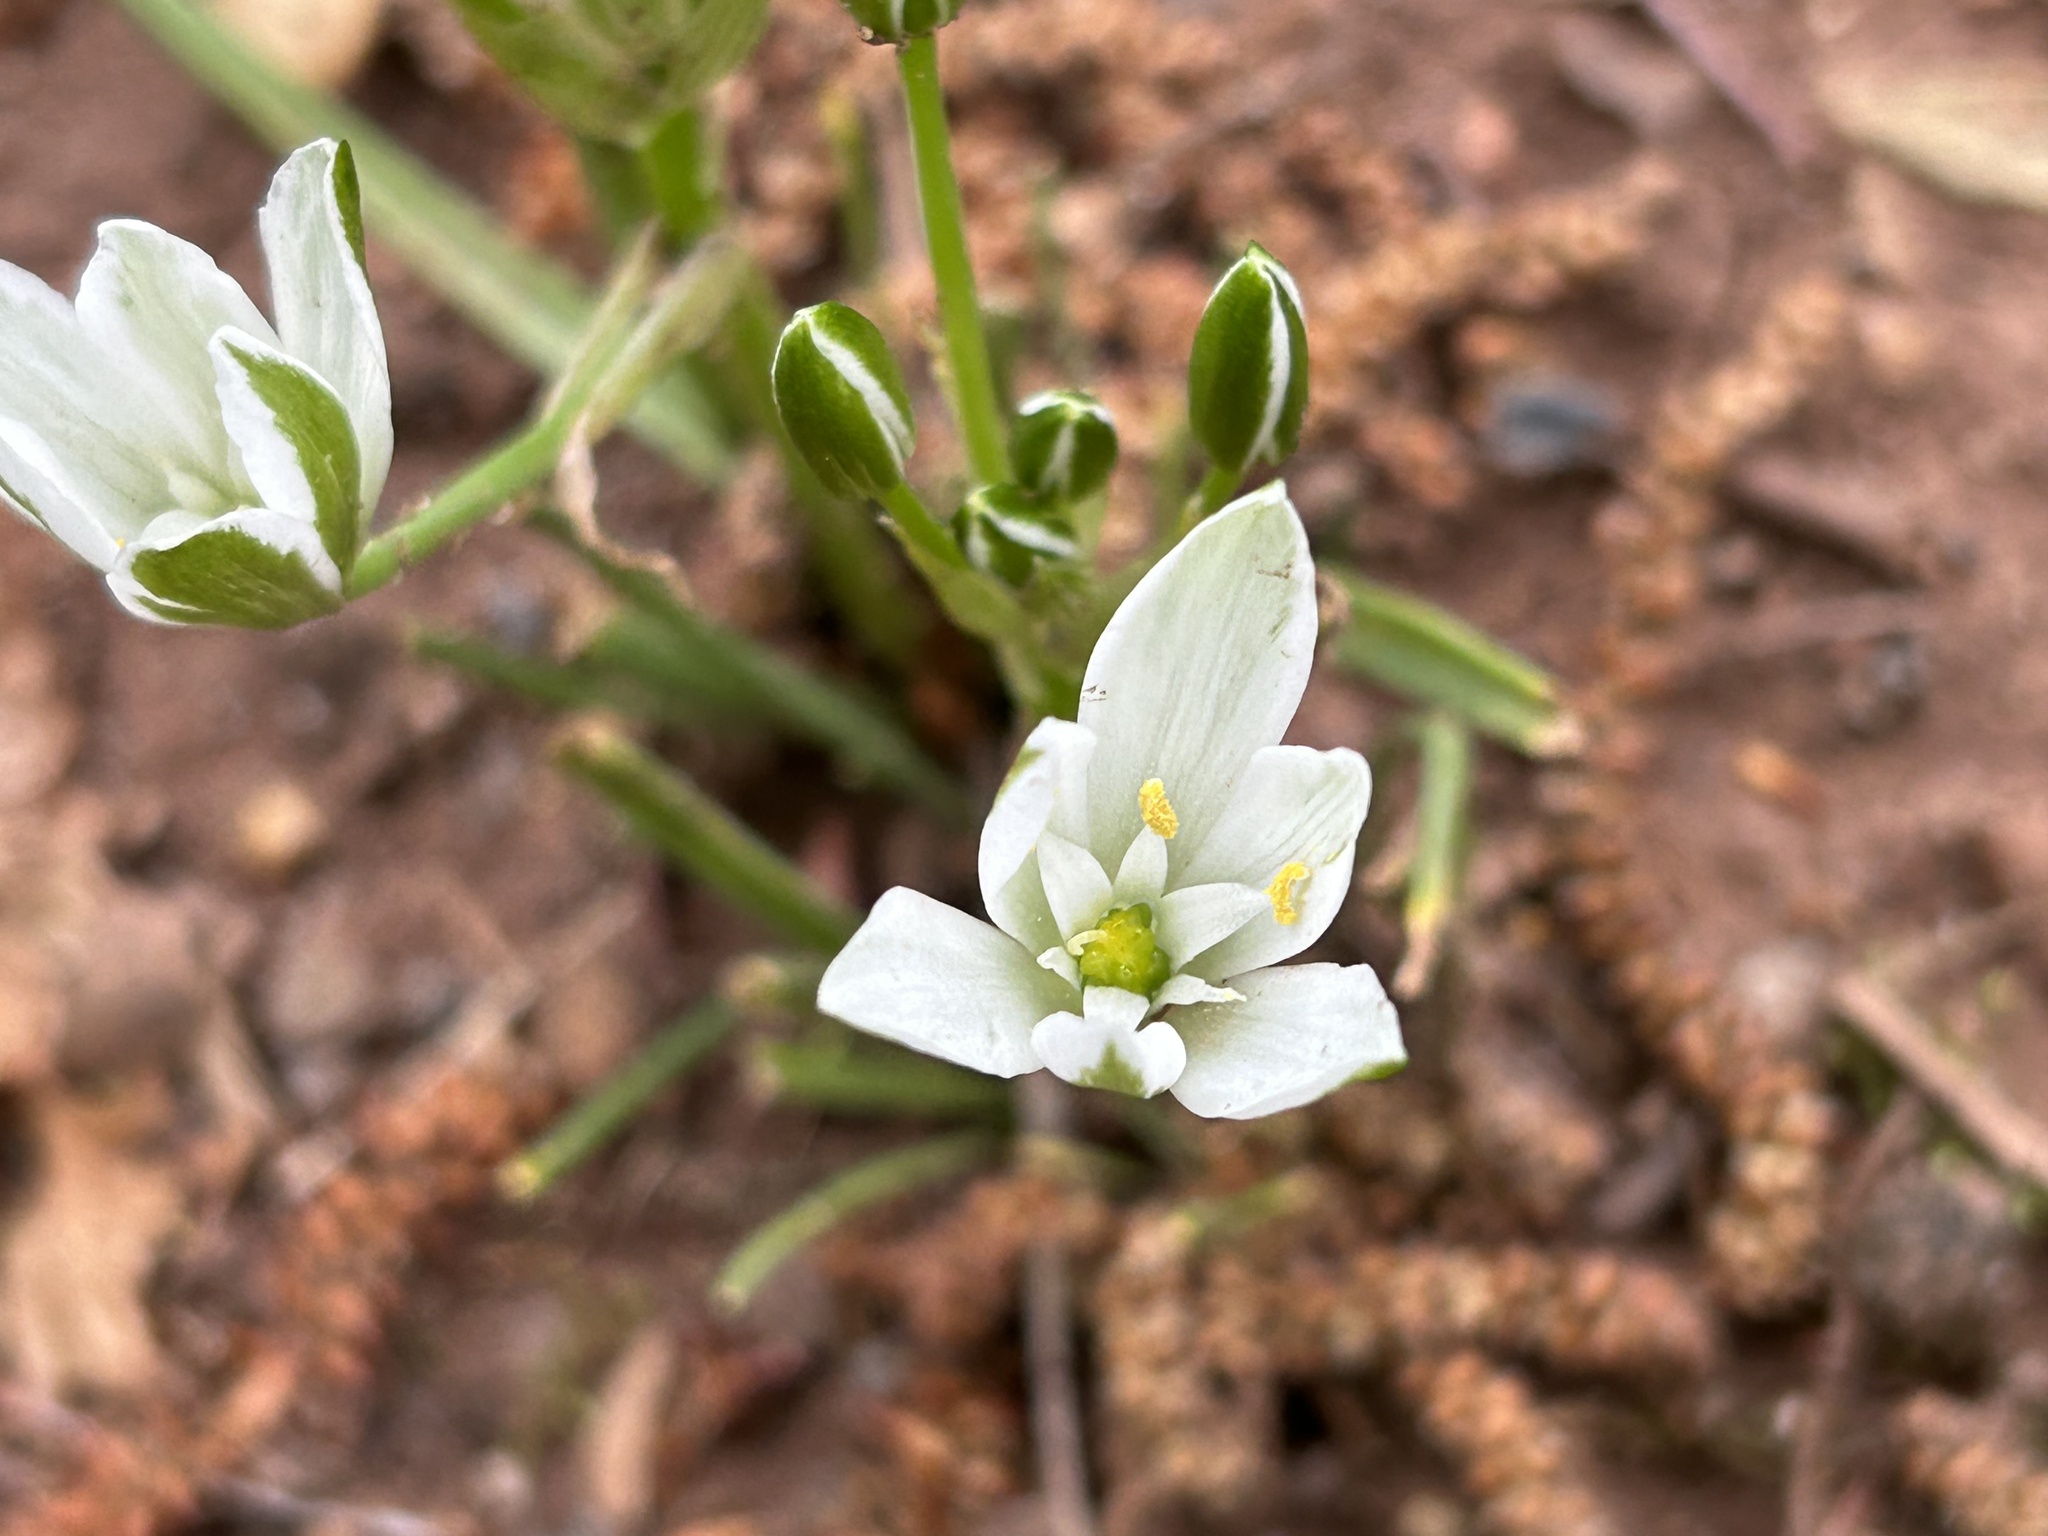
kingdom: Plantae
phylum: Tracheophyta
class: Liliopsida
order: Asparagales
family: Asparagaceae
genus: Ornithogalum
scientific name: Ornithogalum umbellatum
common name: Garden star-of-bethlehem
